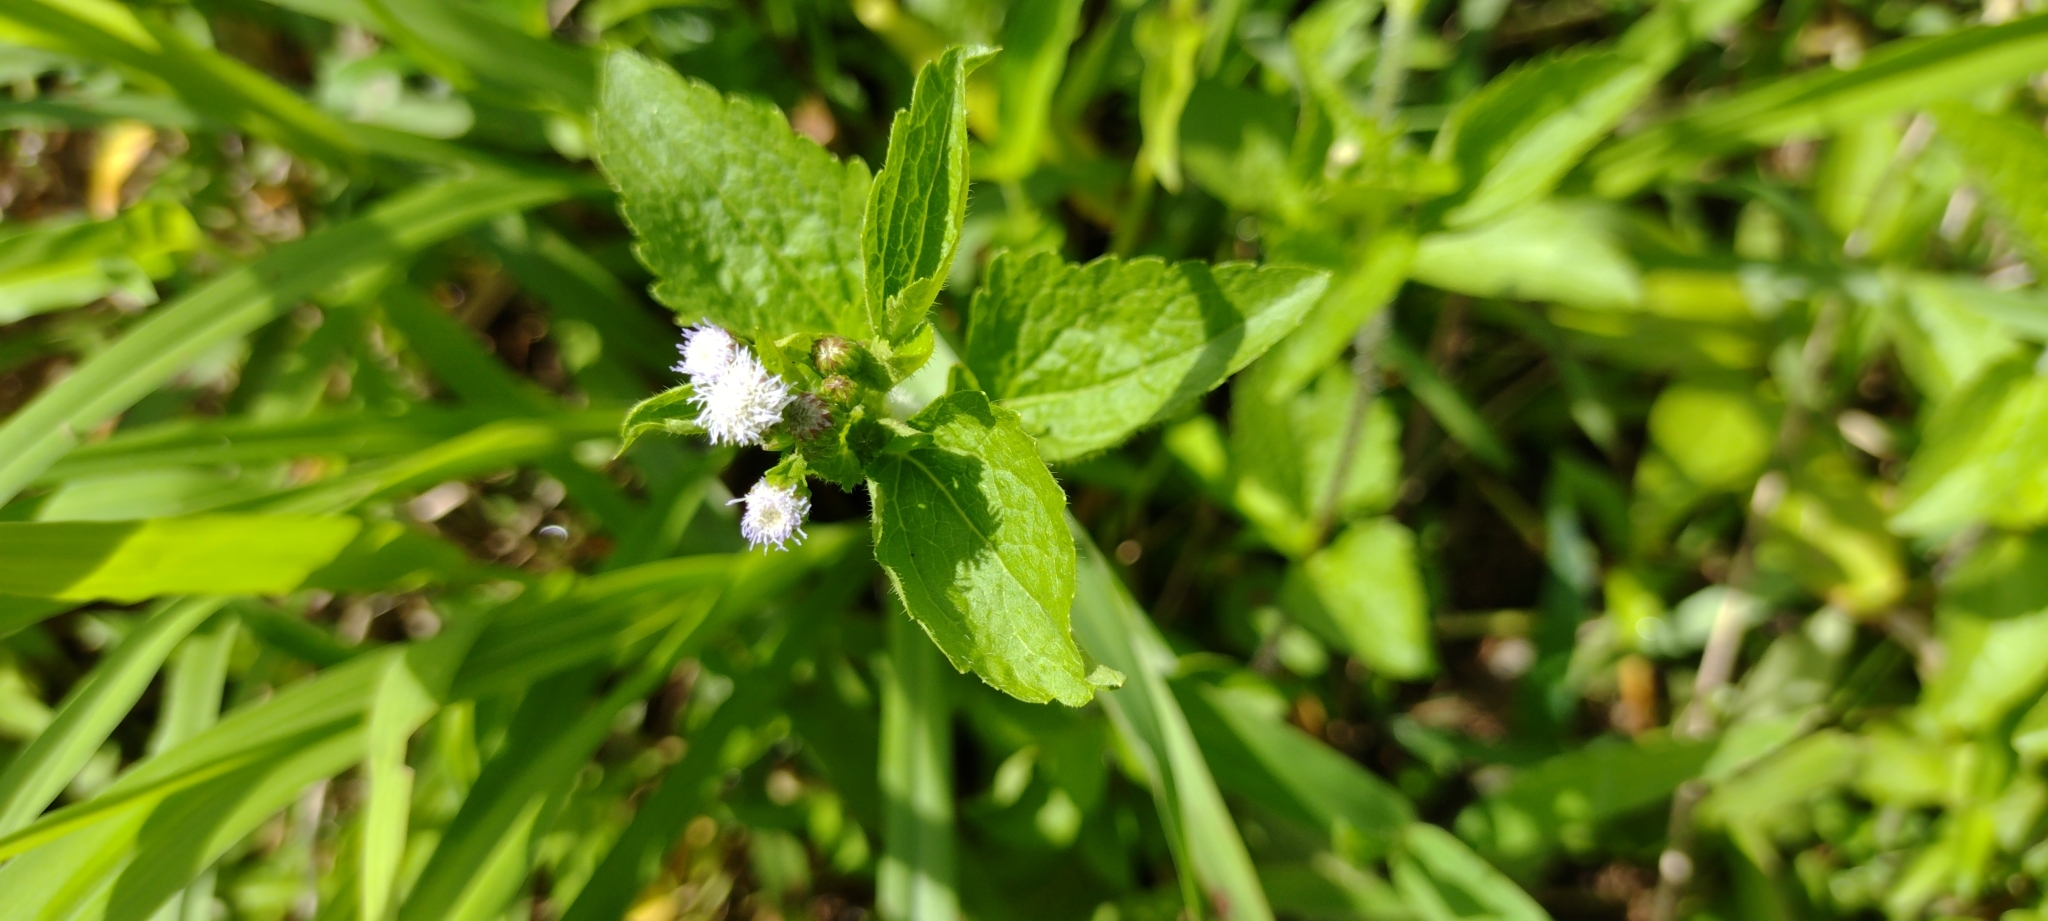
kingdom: Plantae
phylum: Tracheophyta
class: Magnoliopsida
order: Asterales
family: Asteraceae
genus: Ageratum
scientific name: Ageratum conyzoides
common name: Tropical whiteweed
